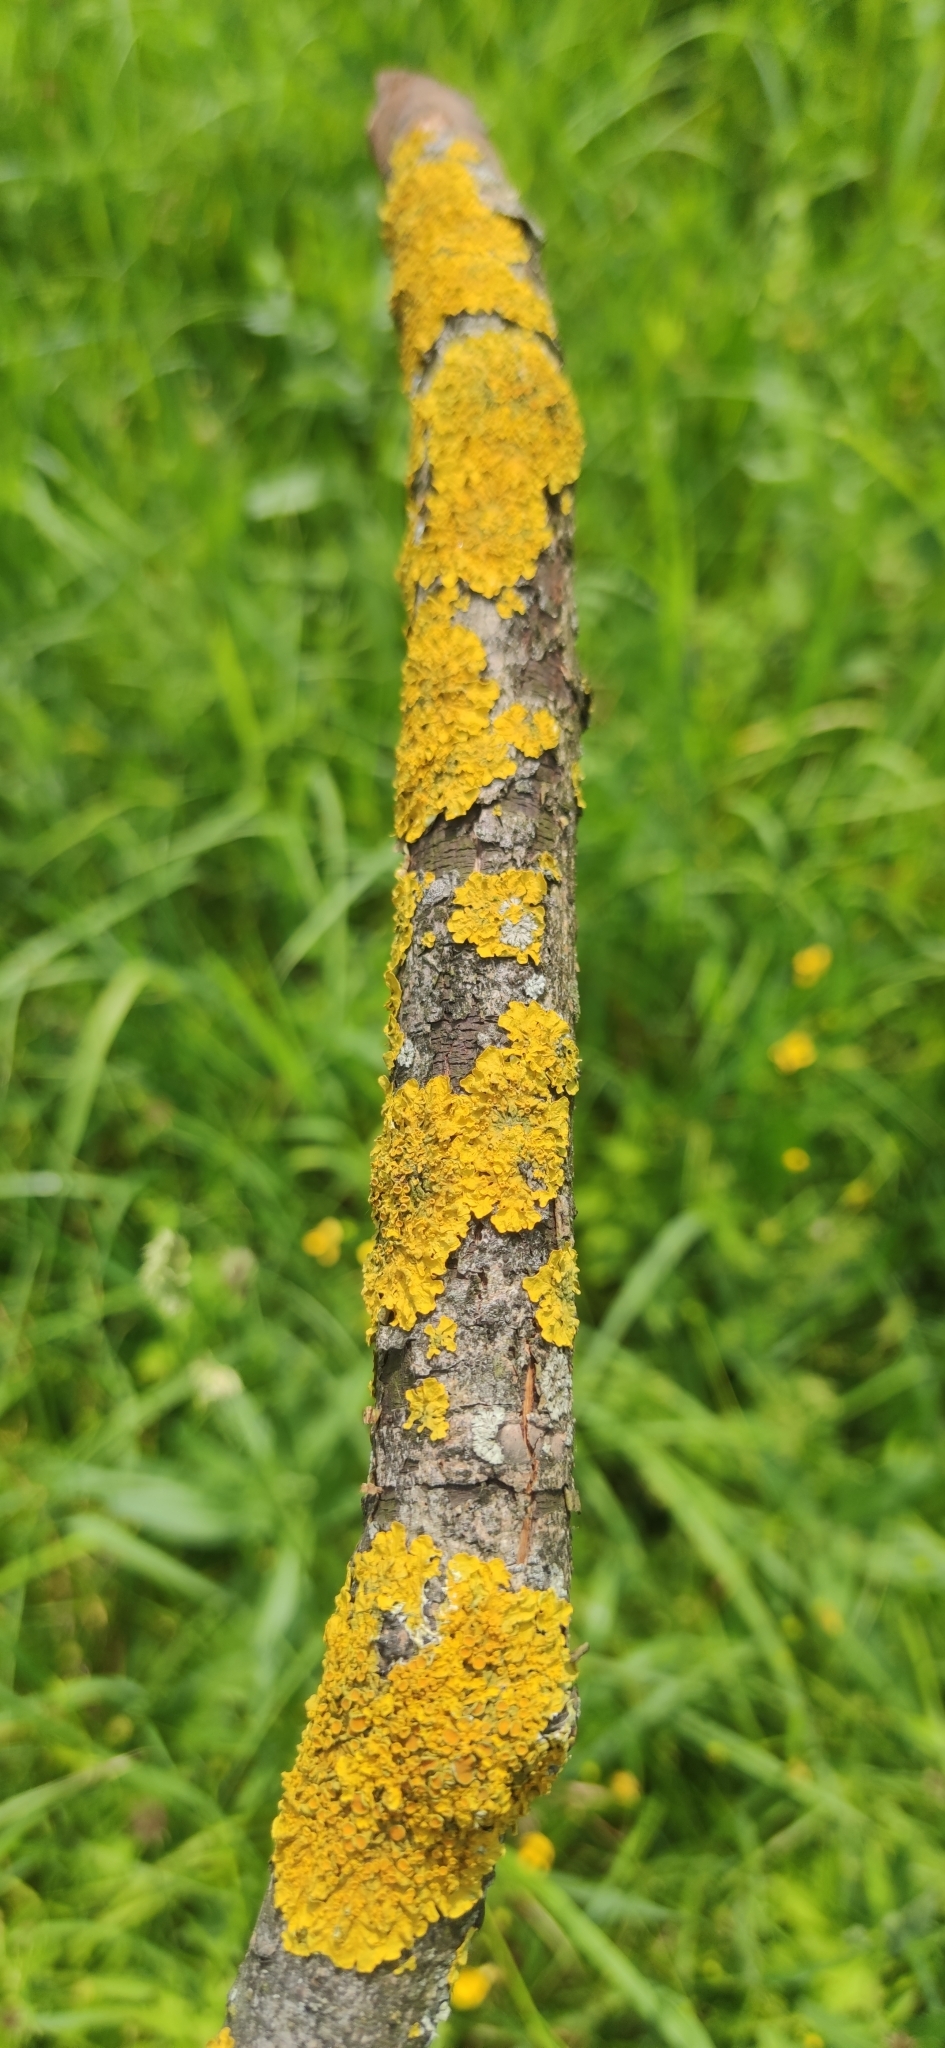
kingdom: Fungi
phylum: Ascomycota
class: Lecanoromycetes
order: Teloschistales
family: Teloschistaceae
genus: Xanthoria
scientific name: Xanthoria parietina
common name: Common orange lichen
